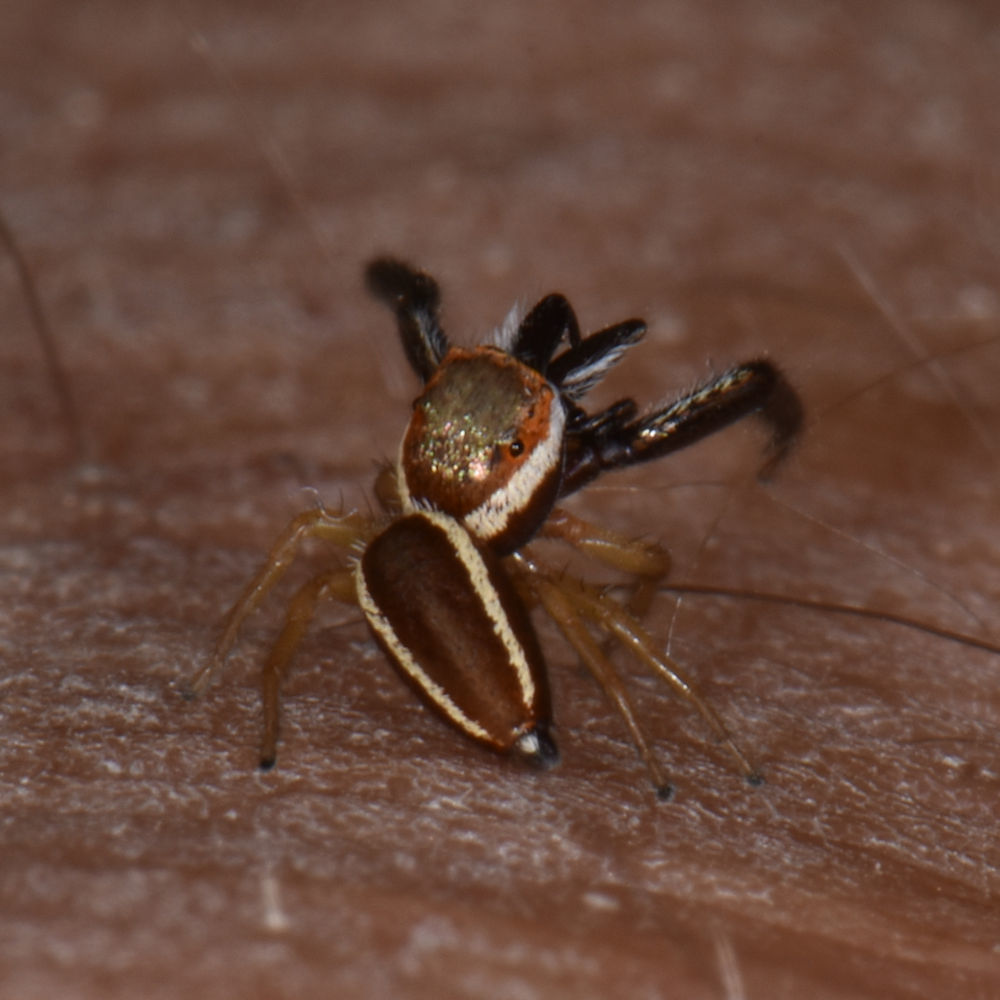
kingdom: Animalia
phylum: Arthropoda
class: Arachnida
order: Araneae
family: Salticidae
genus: Hentzia
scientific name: Hentzia palmarum
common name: Common hentz jumping spider
